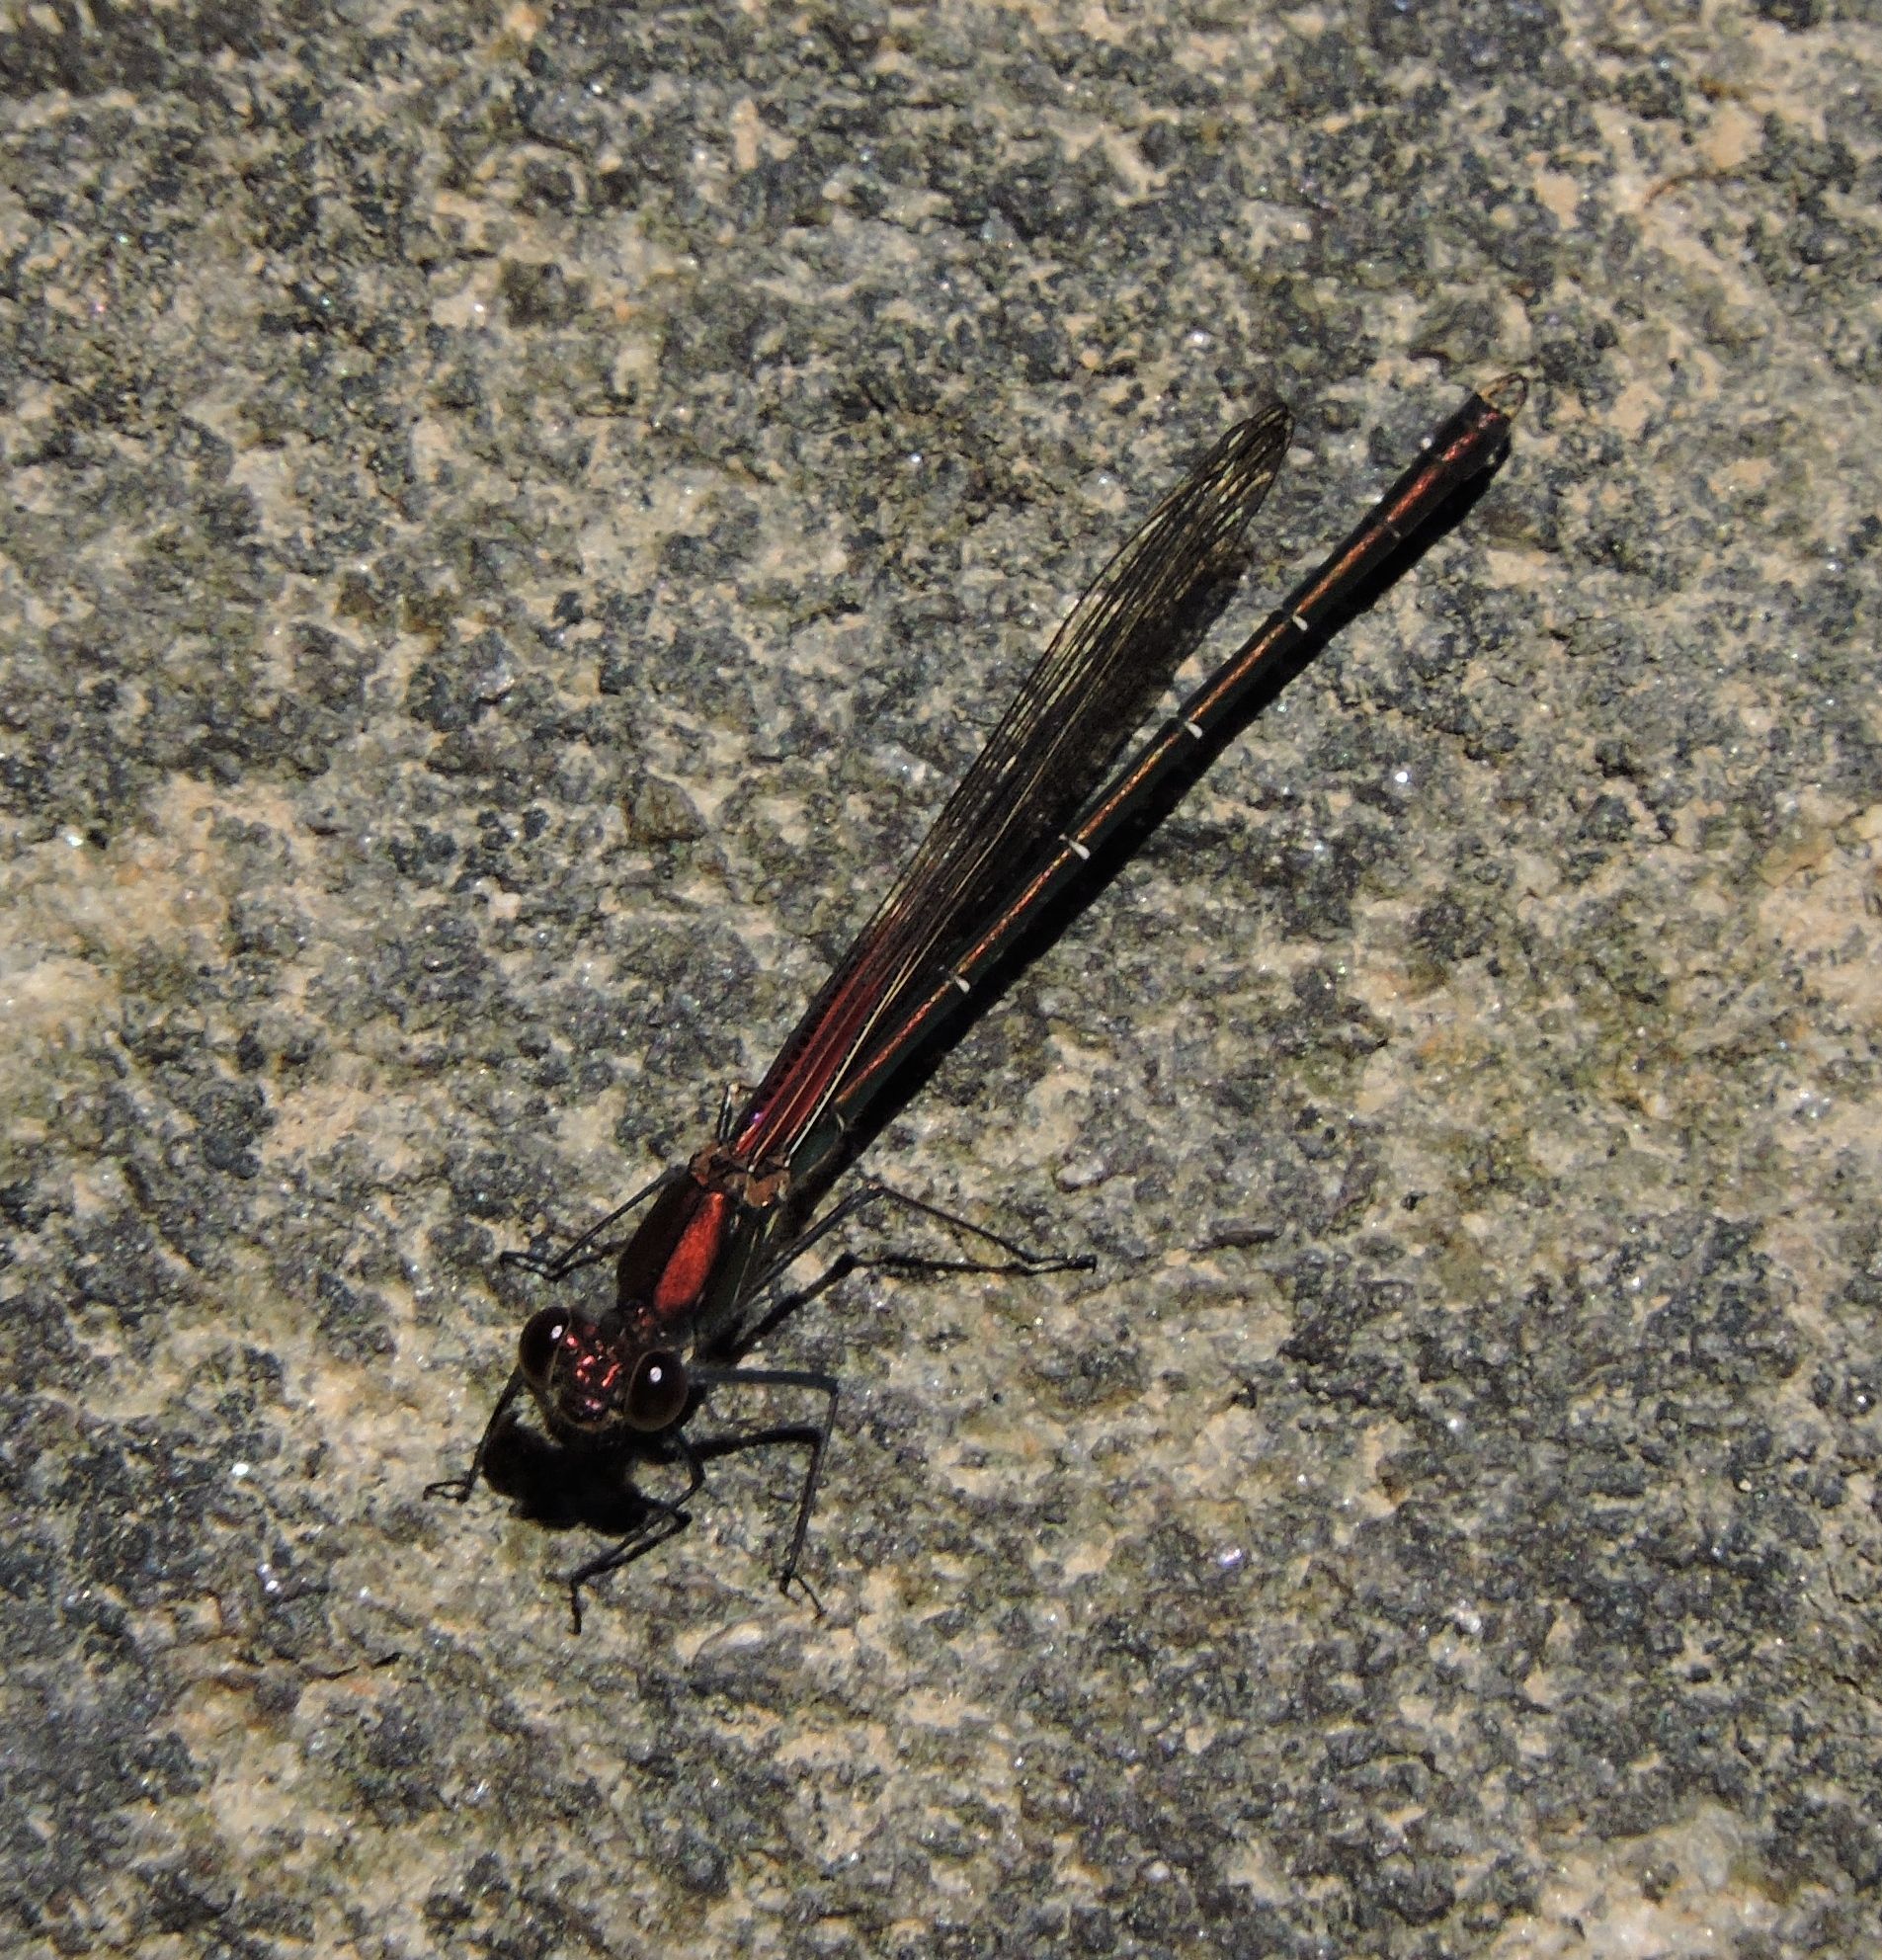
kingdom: Animalia
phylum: Arthropoda
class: Insecta
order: Odonata
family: Calopterygidae
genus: Hetaerina
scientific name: Hetaerina americana
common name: American rubyspot
